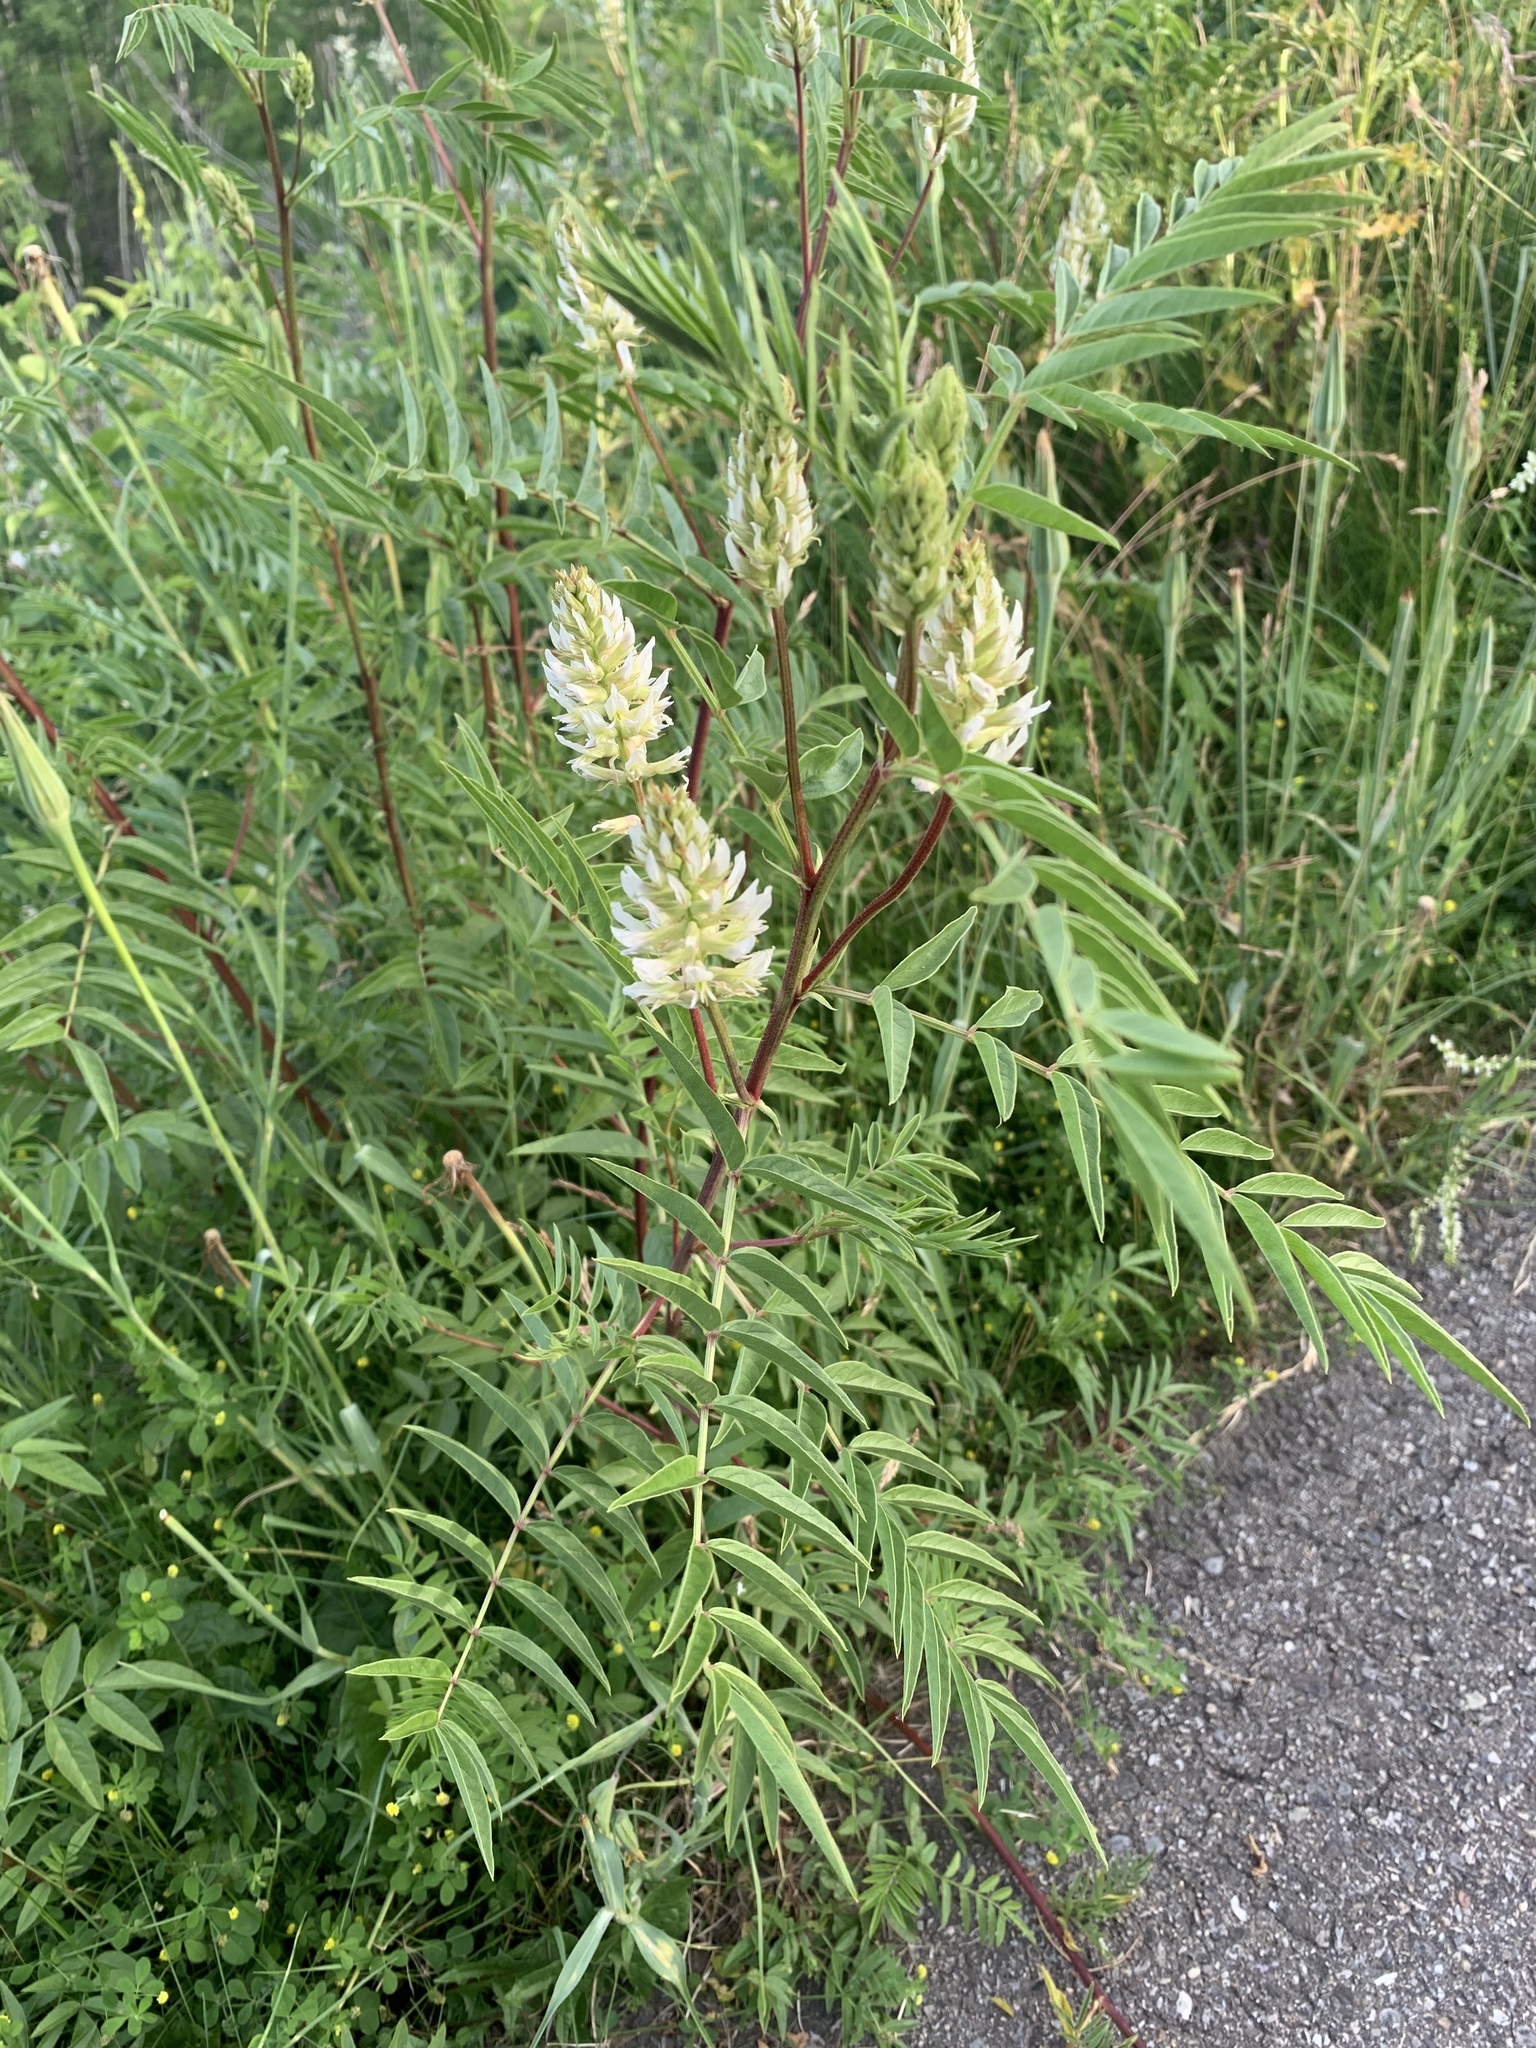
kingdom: Plantae
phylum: Tracheophyta
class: Magnoliopsida
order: Fabales
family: Fabaceae
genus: Glycyrrhiza
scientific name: Glycyrrhiza lepidota
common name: American liquorice
